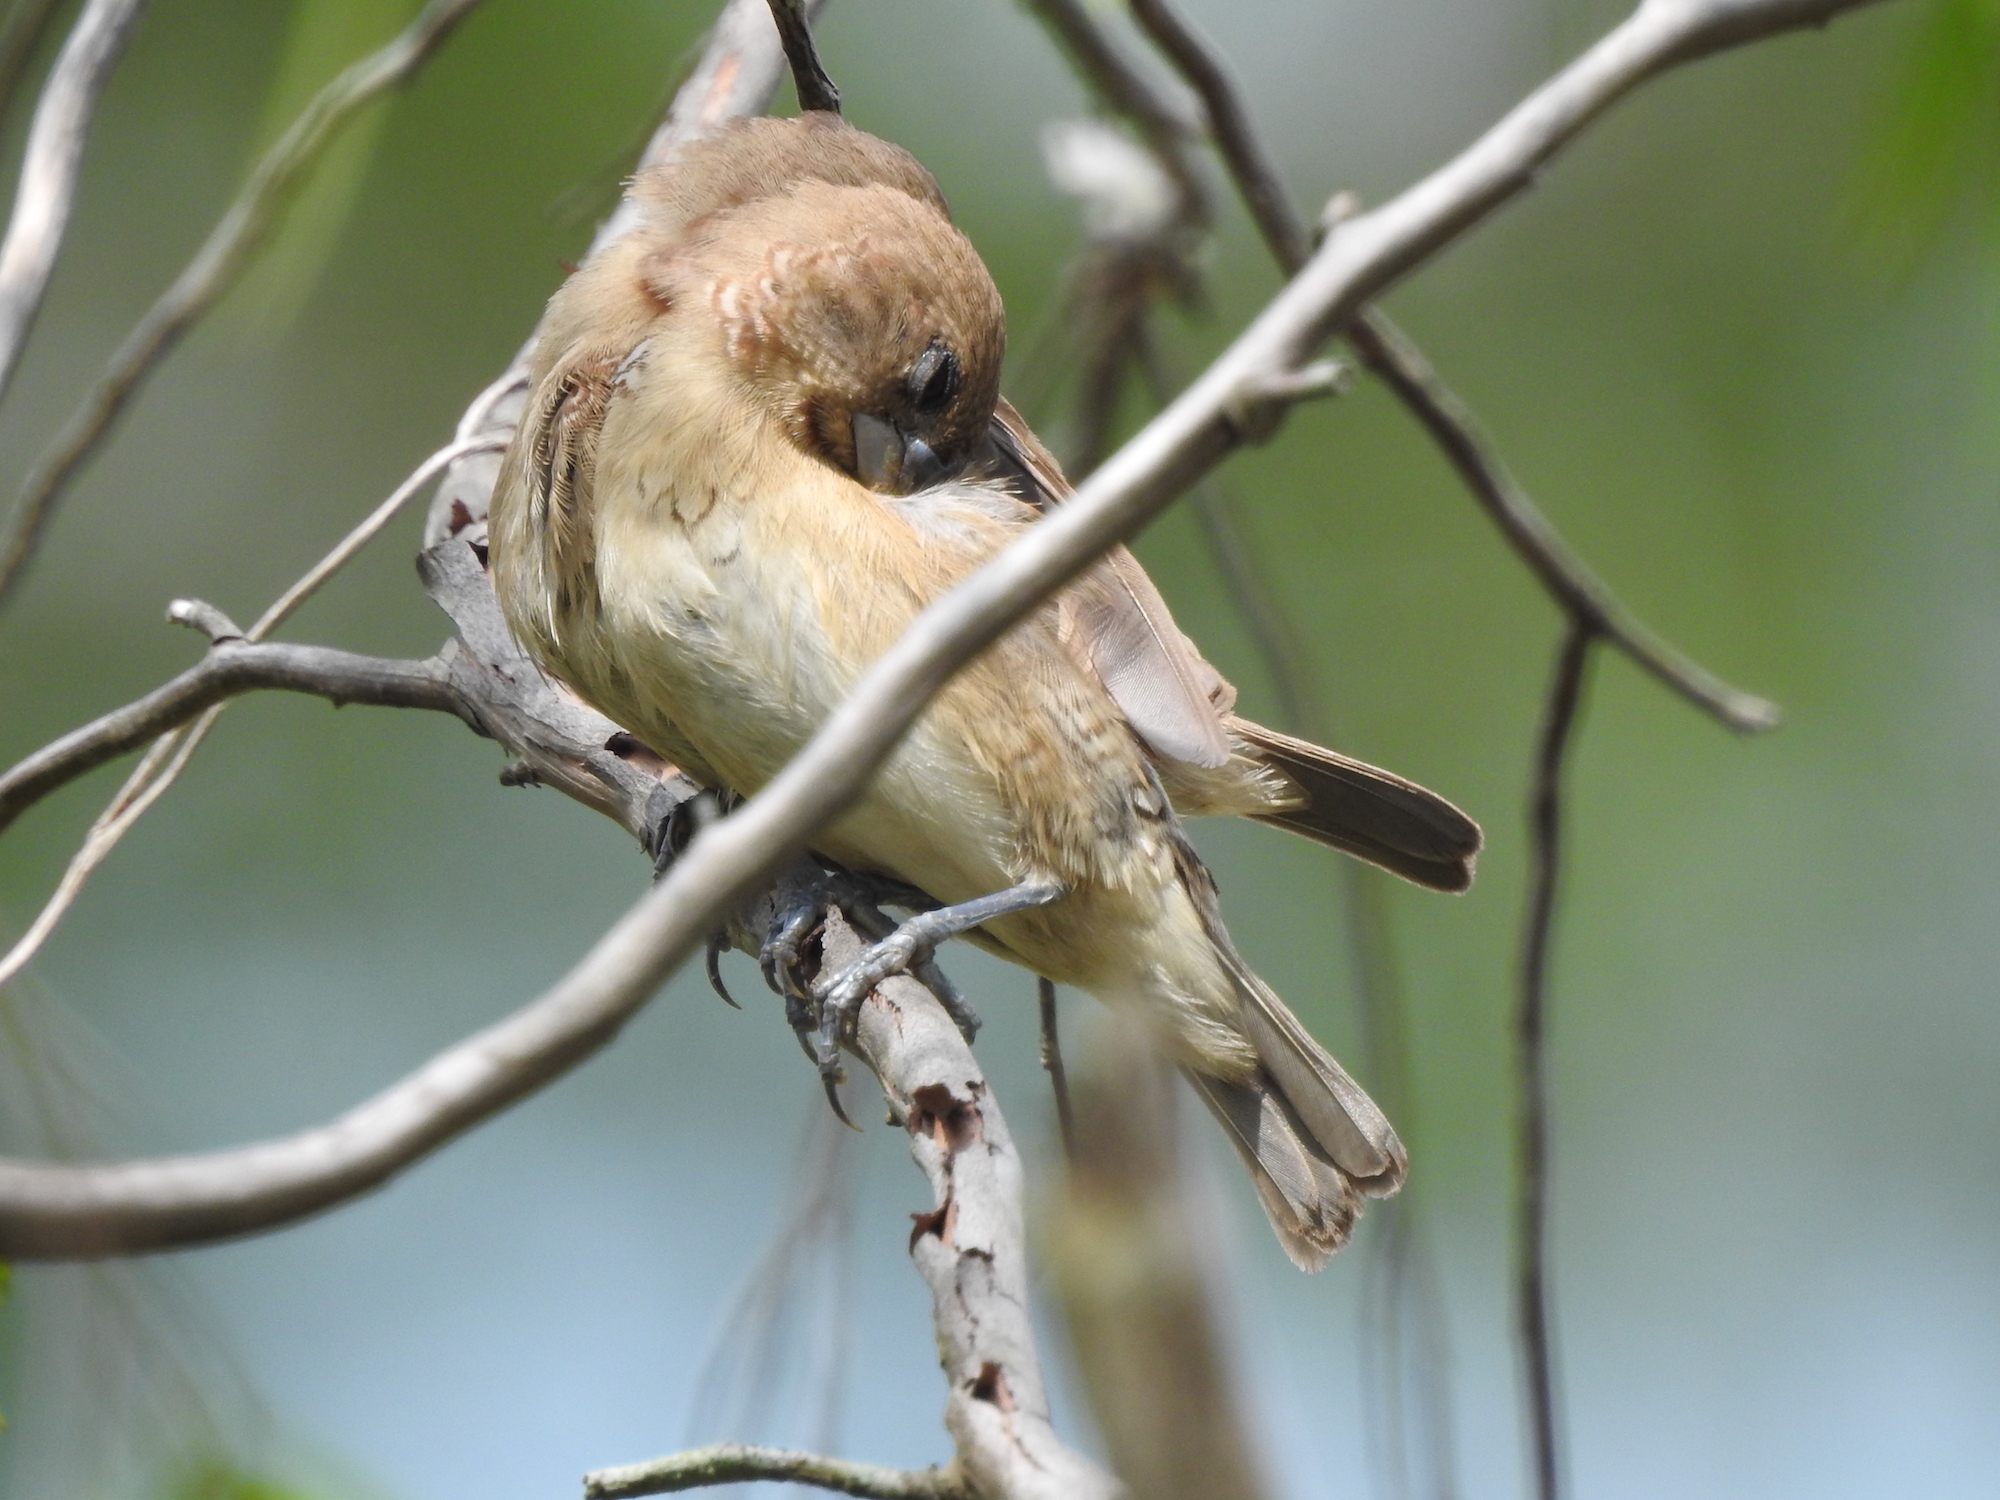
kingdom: Animalia
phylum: Chordata
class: Aves
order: Passeriformes
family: Estrildidae
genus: Lonchura
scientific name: Lonchura punctulata
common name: Scaly-breasted munia
